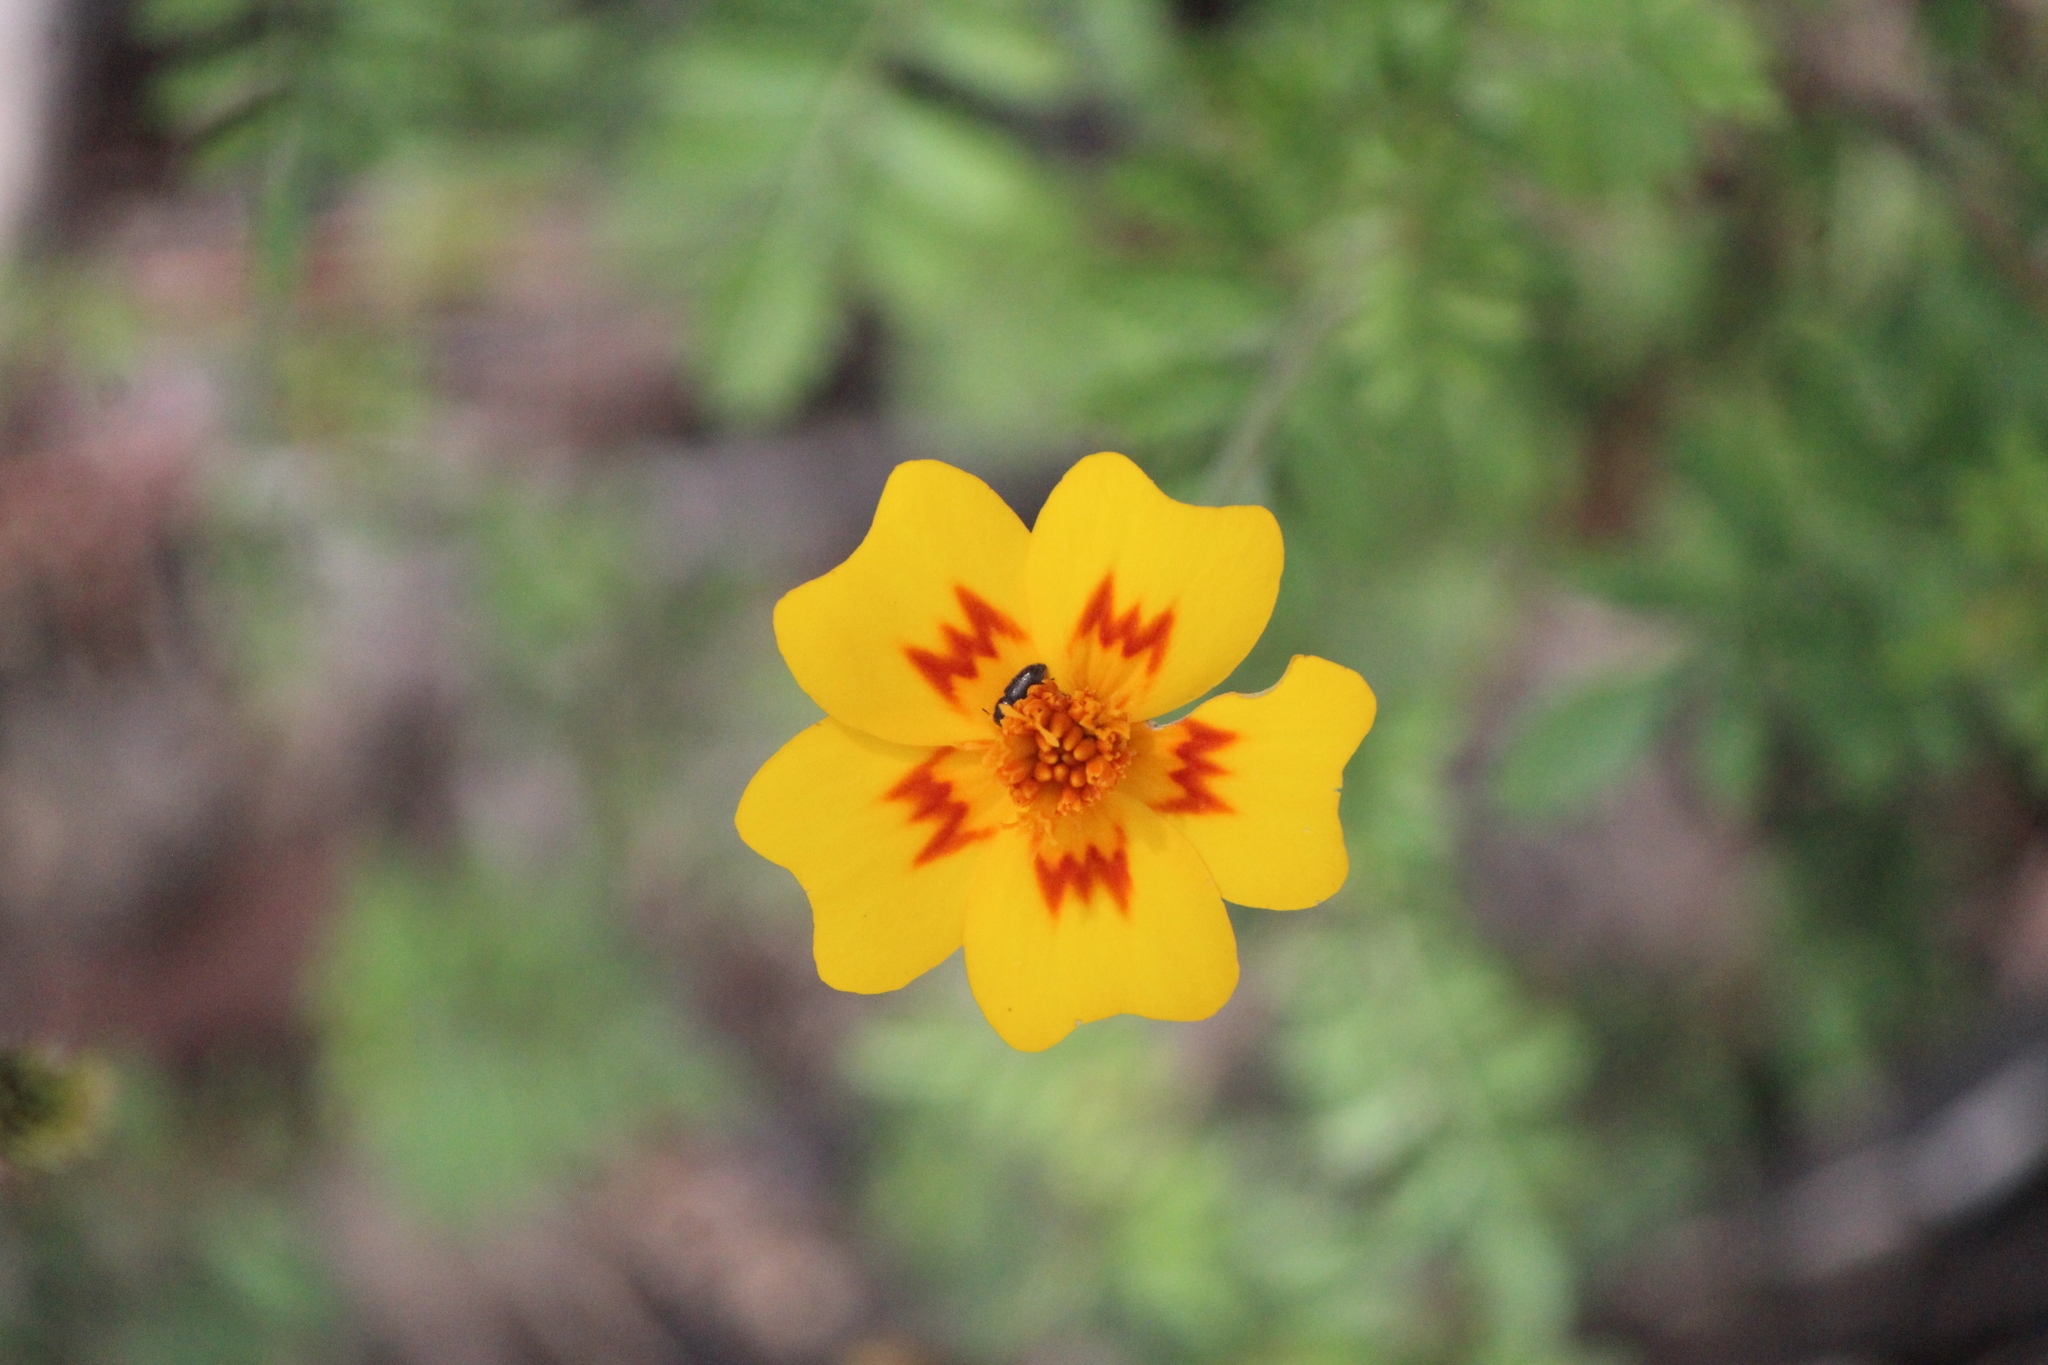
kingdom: Plantae
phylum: Tracheophyta
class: Magnoliopsida
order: Asterales
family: Asteraceae
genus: Tagetes
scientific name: Tagetes lunulata
